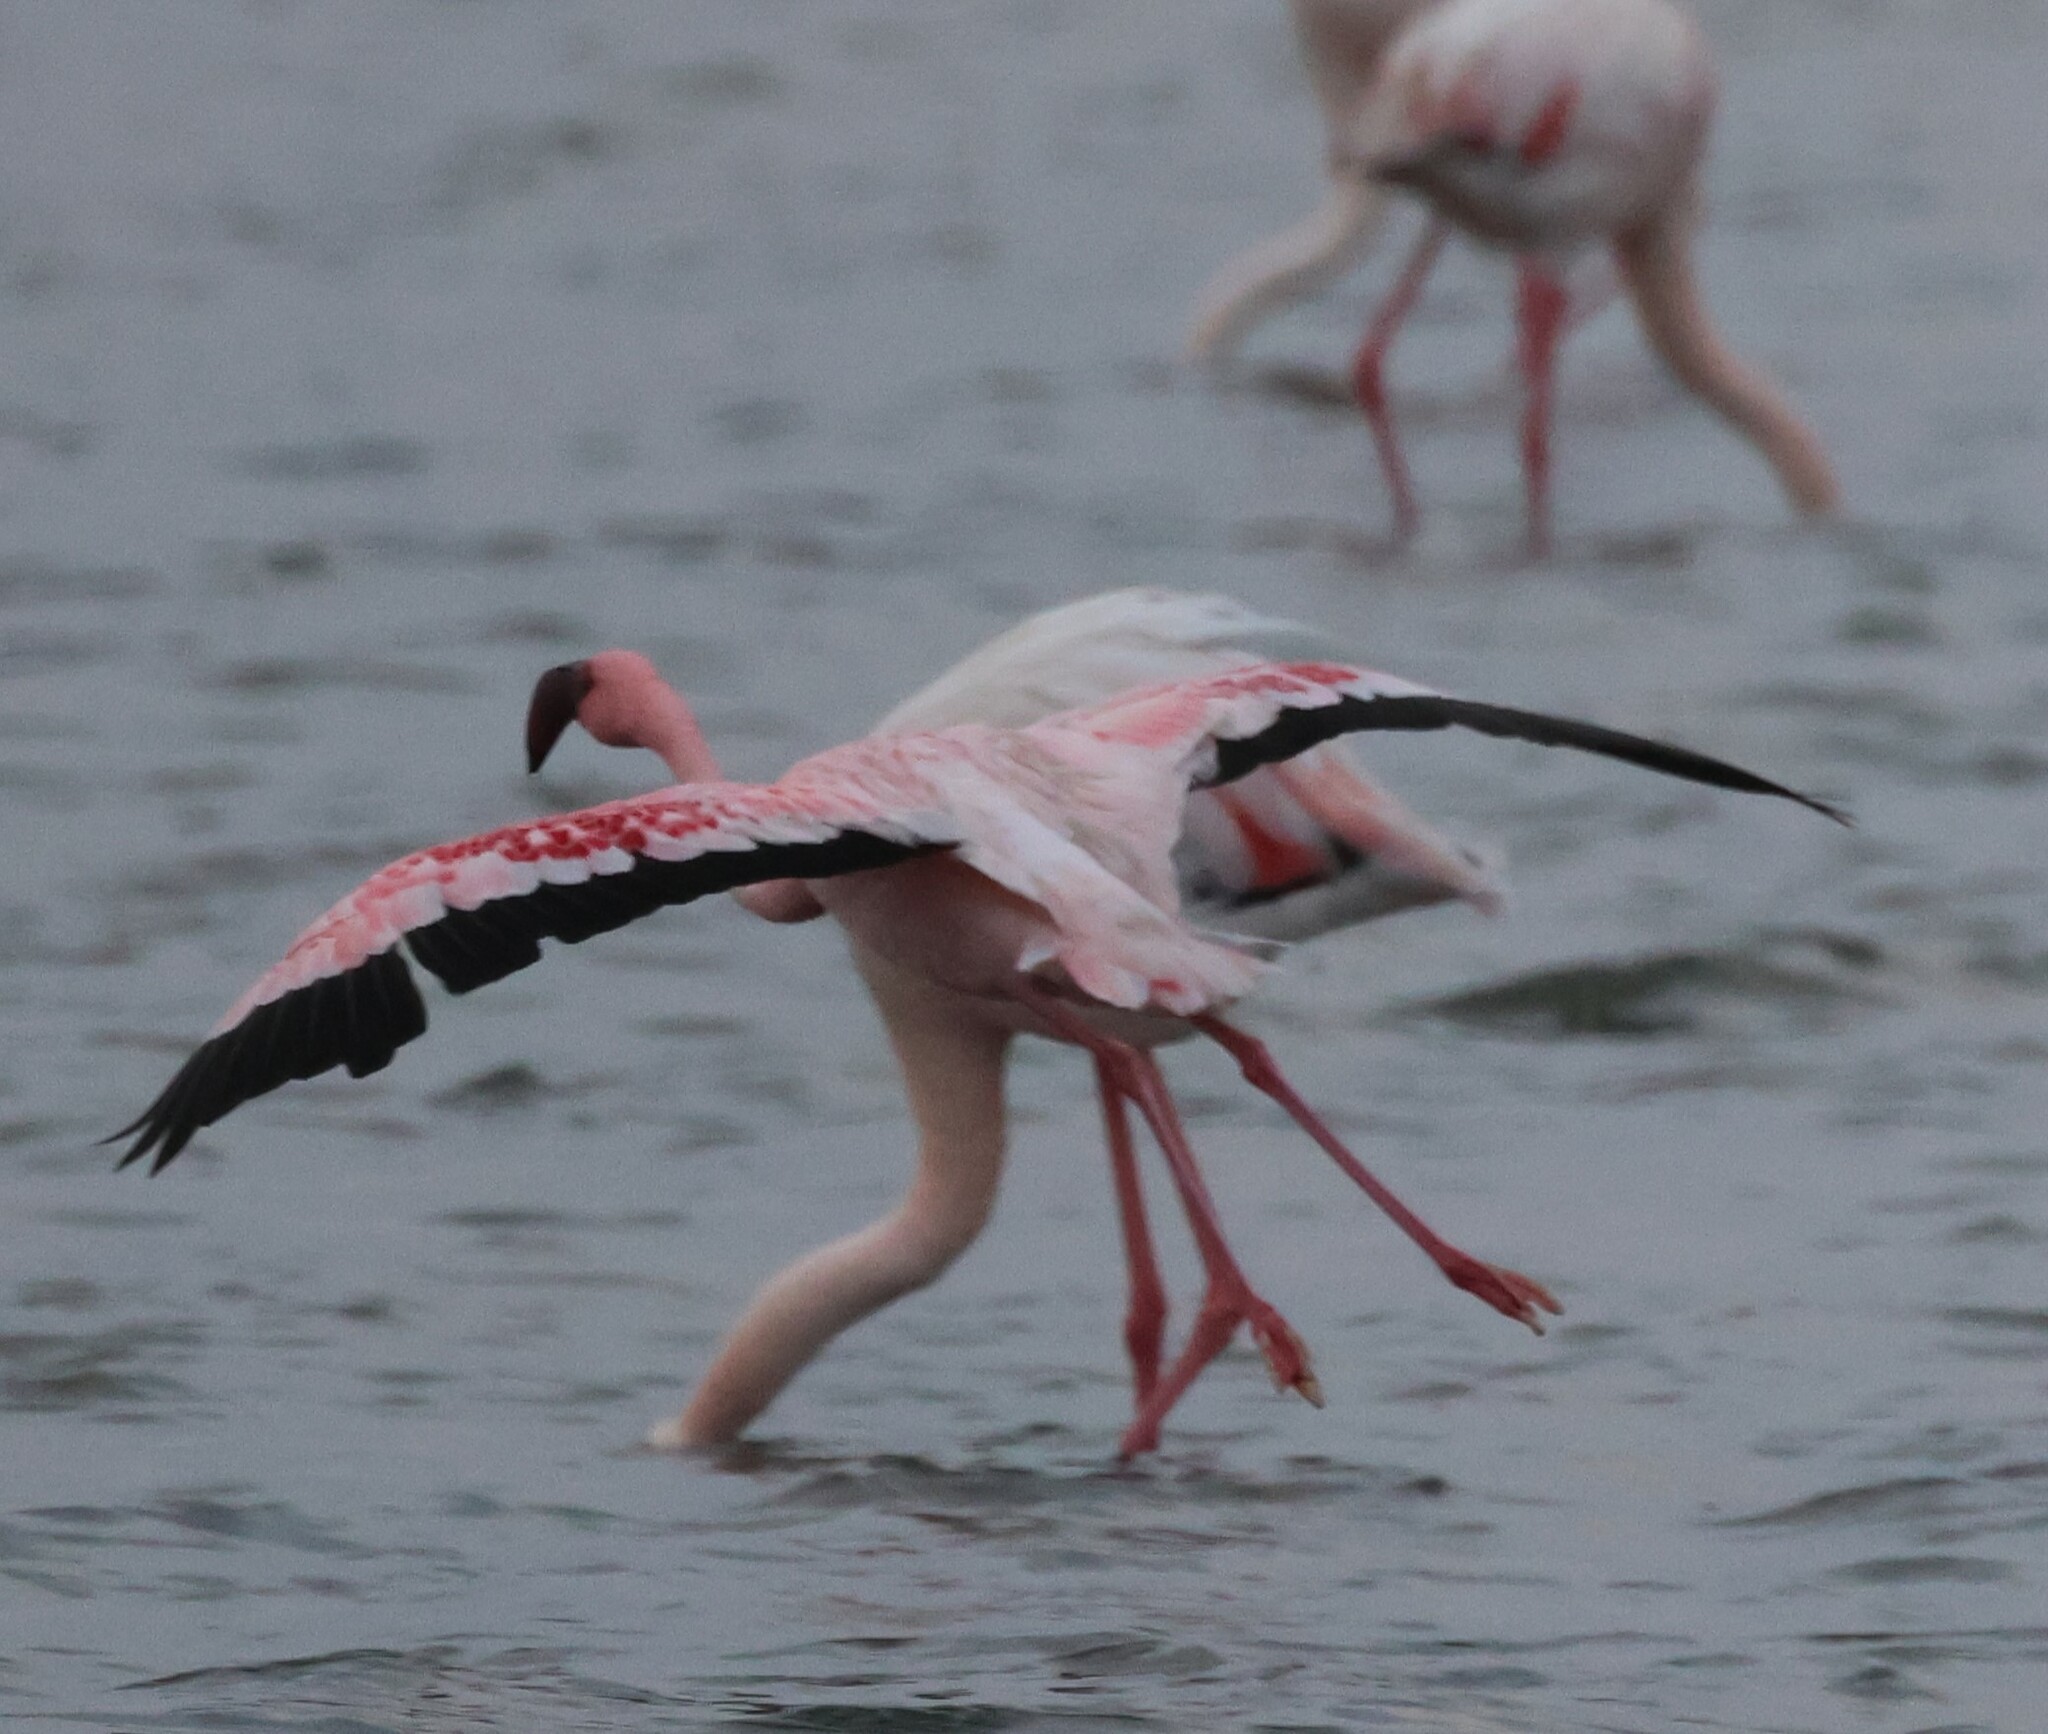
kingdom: Animalia
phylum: Chordata
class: Aves
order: Phoenicopteriformes
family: Phoenicopteridae
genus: Phoeniconaias
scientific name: Phoeniconaias minor
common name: Lesser flamingo
